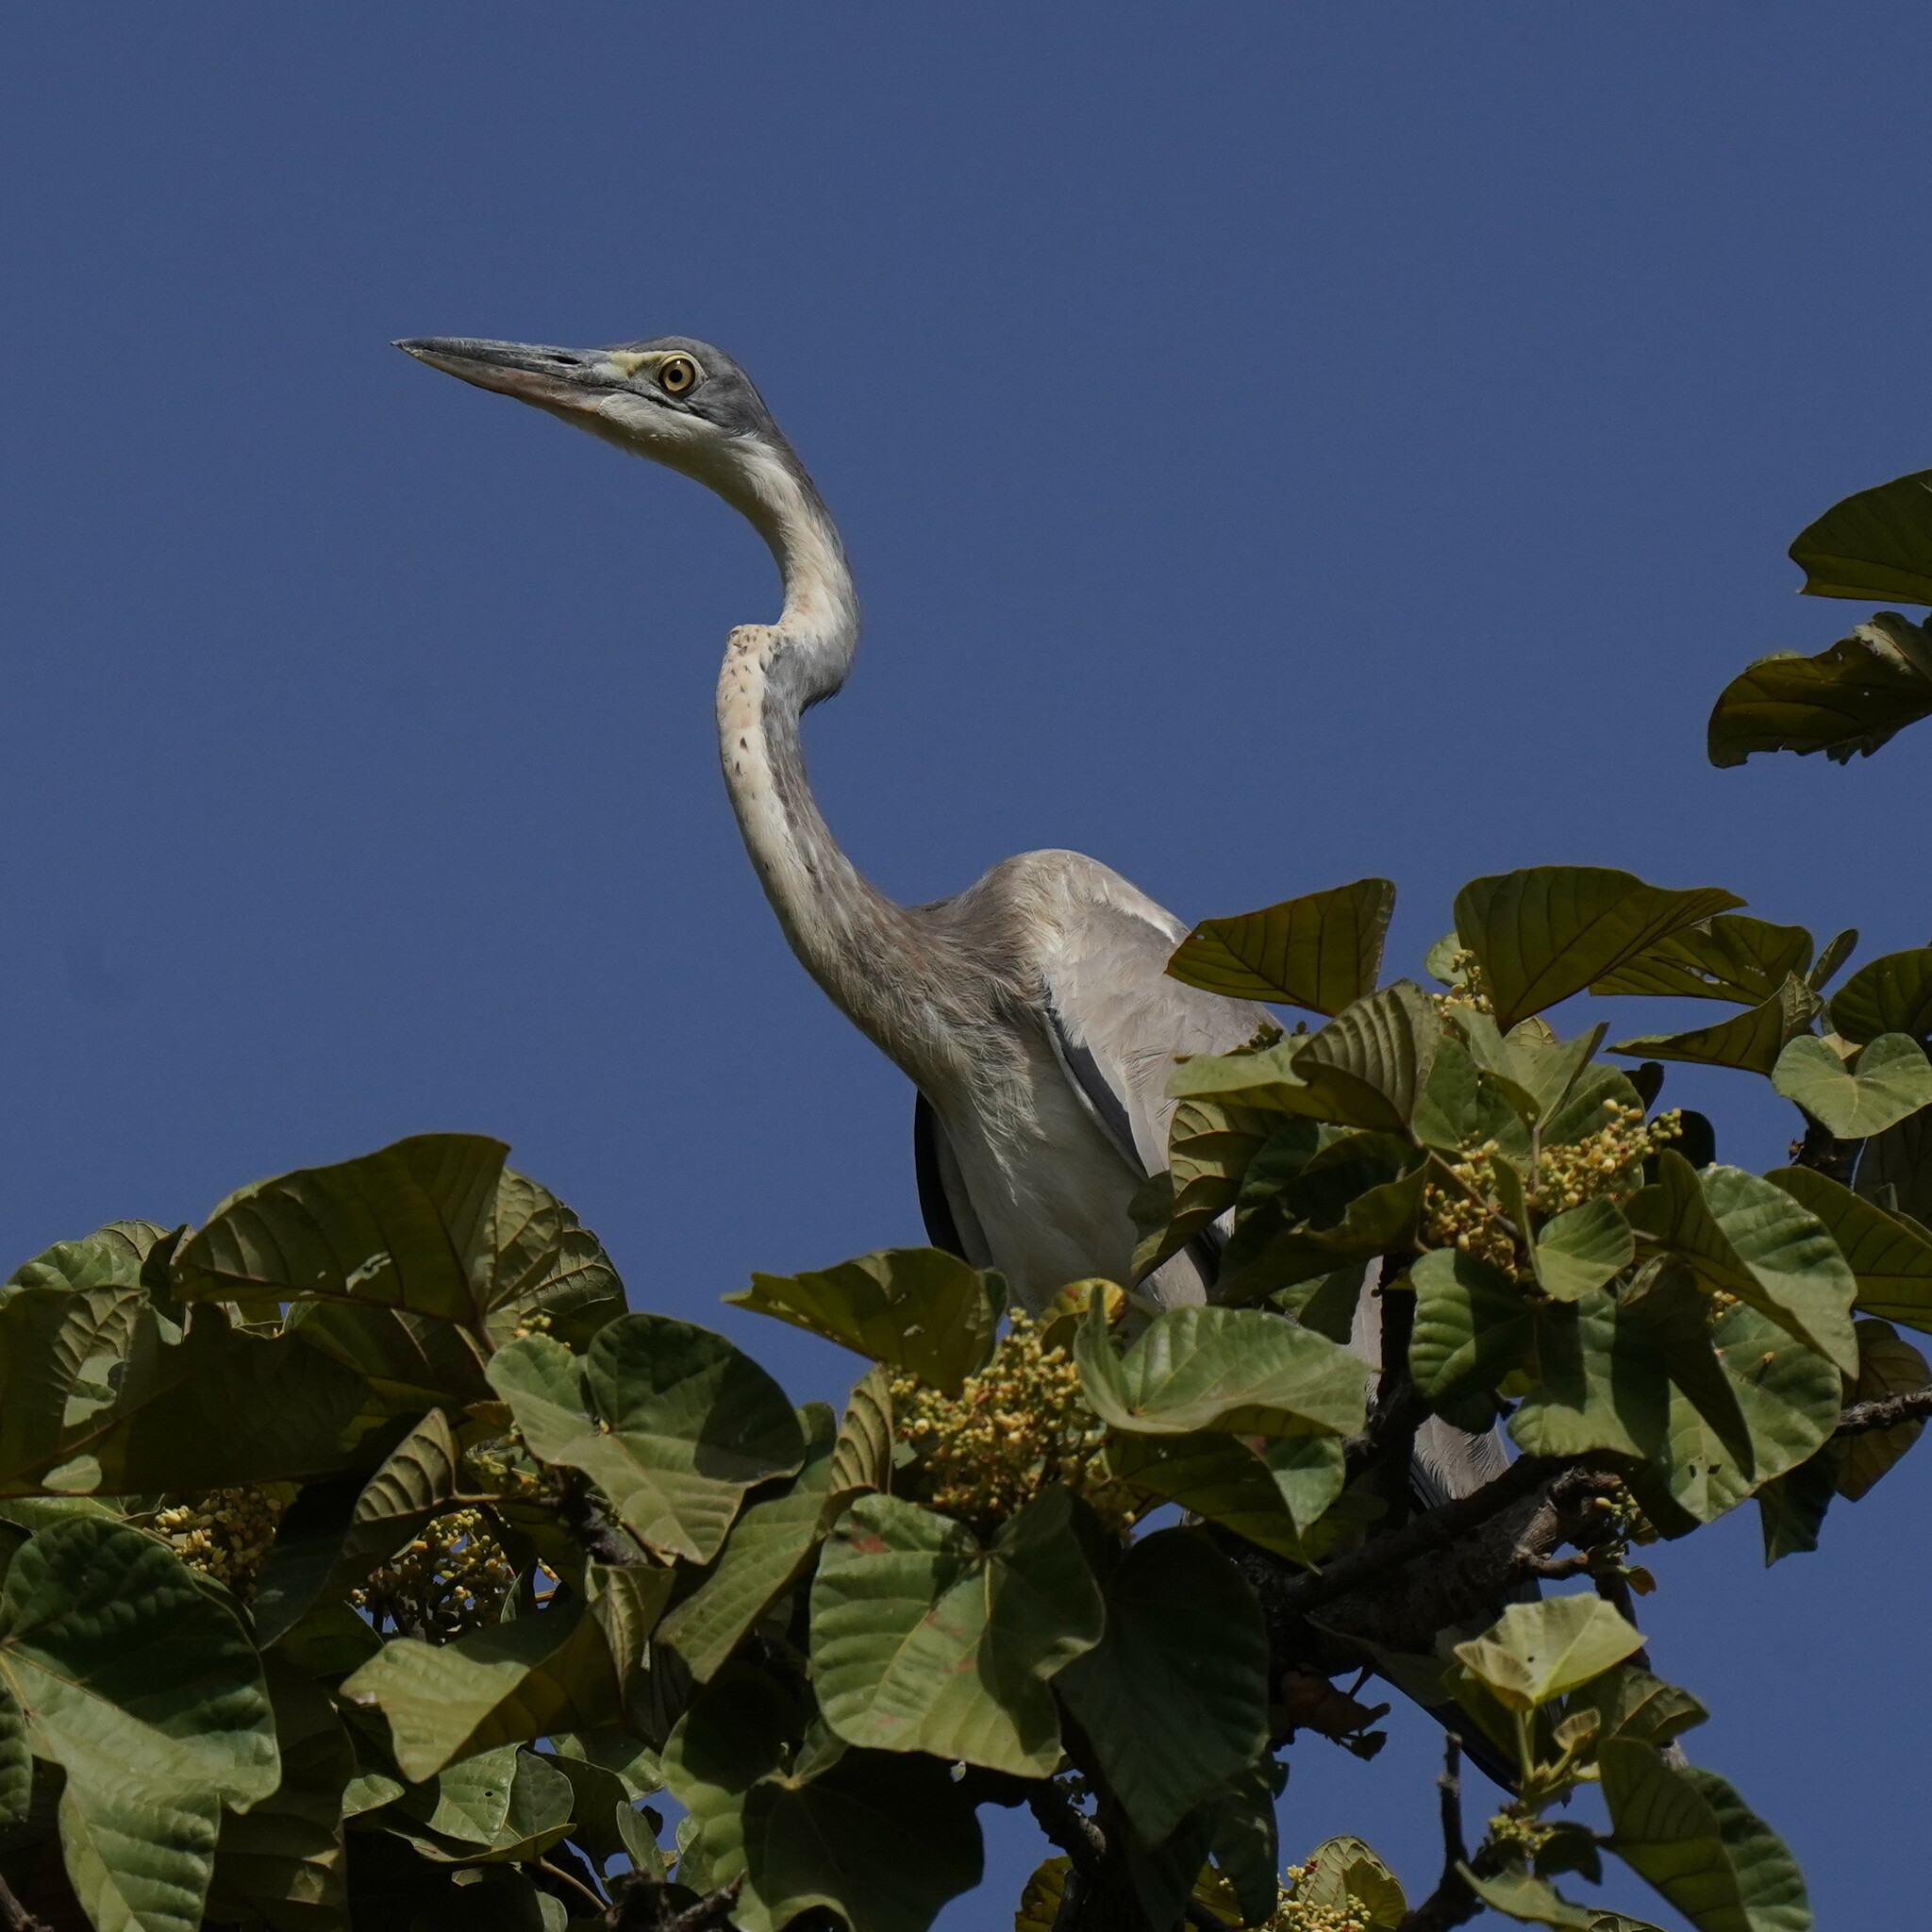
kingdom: Animalia
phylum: Chordata
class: Aves
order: Pelecaniformes
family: Ardeidae
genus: Ardea
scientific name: Ardea cinerea
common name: Grey heron
